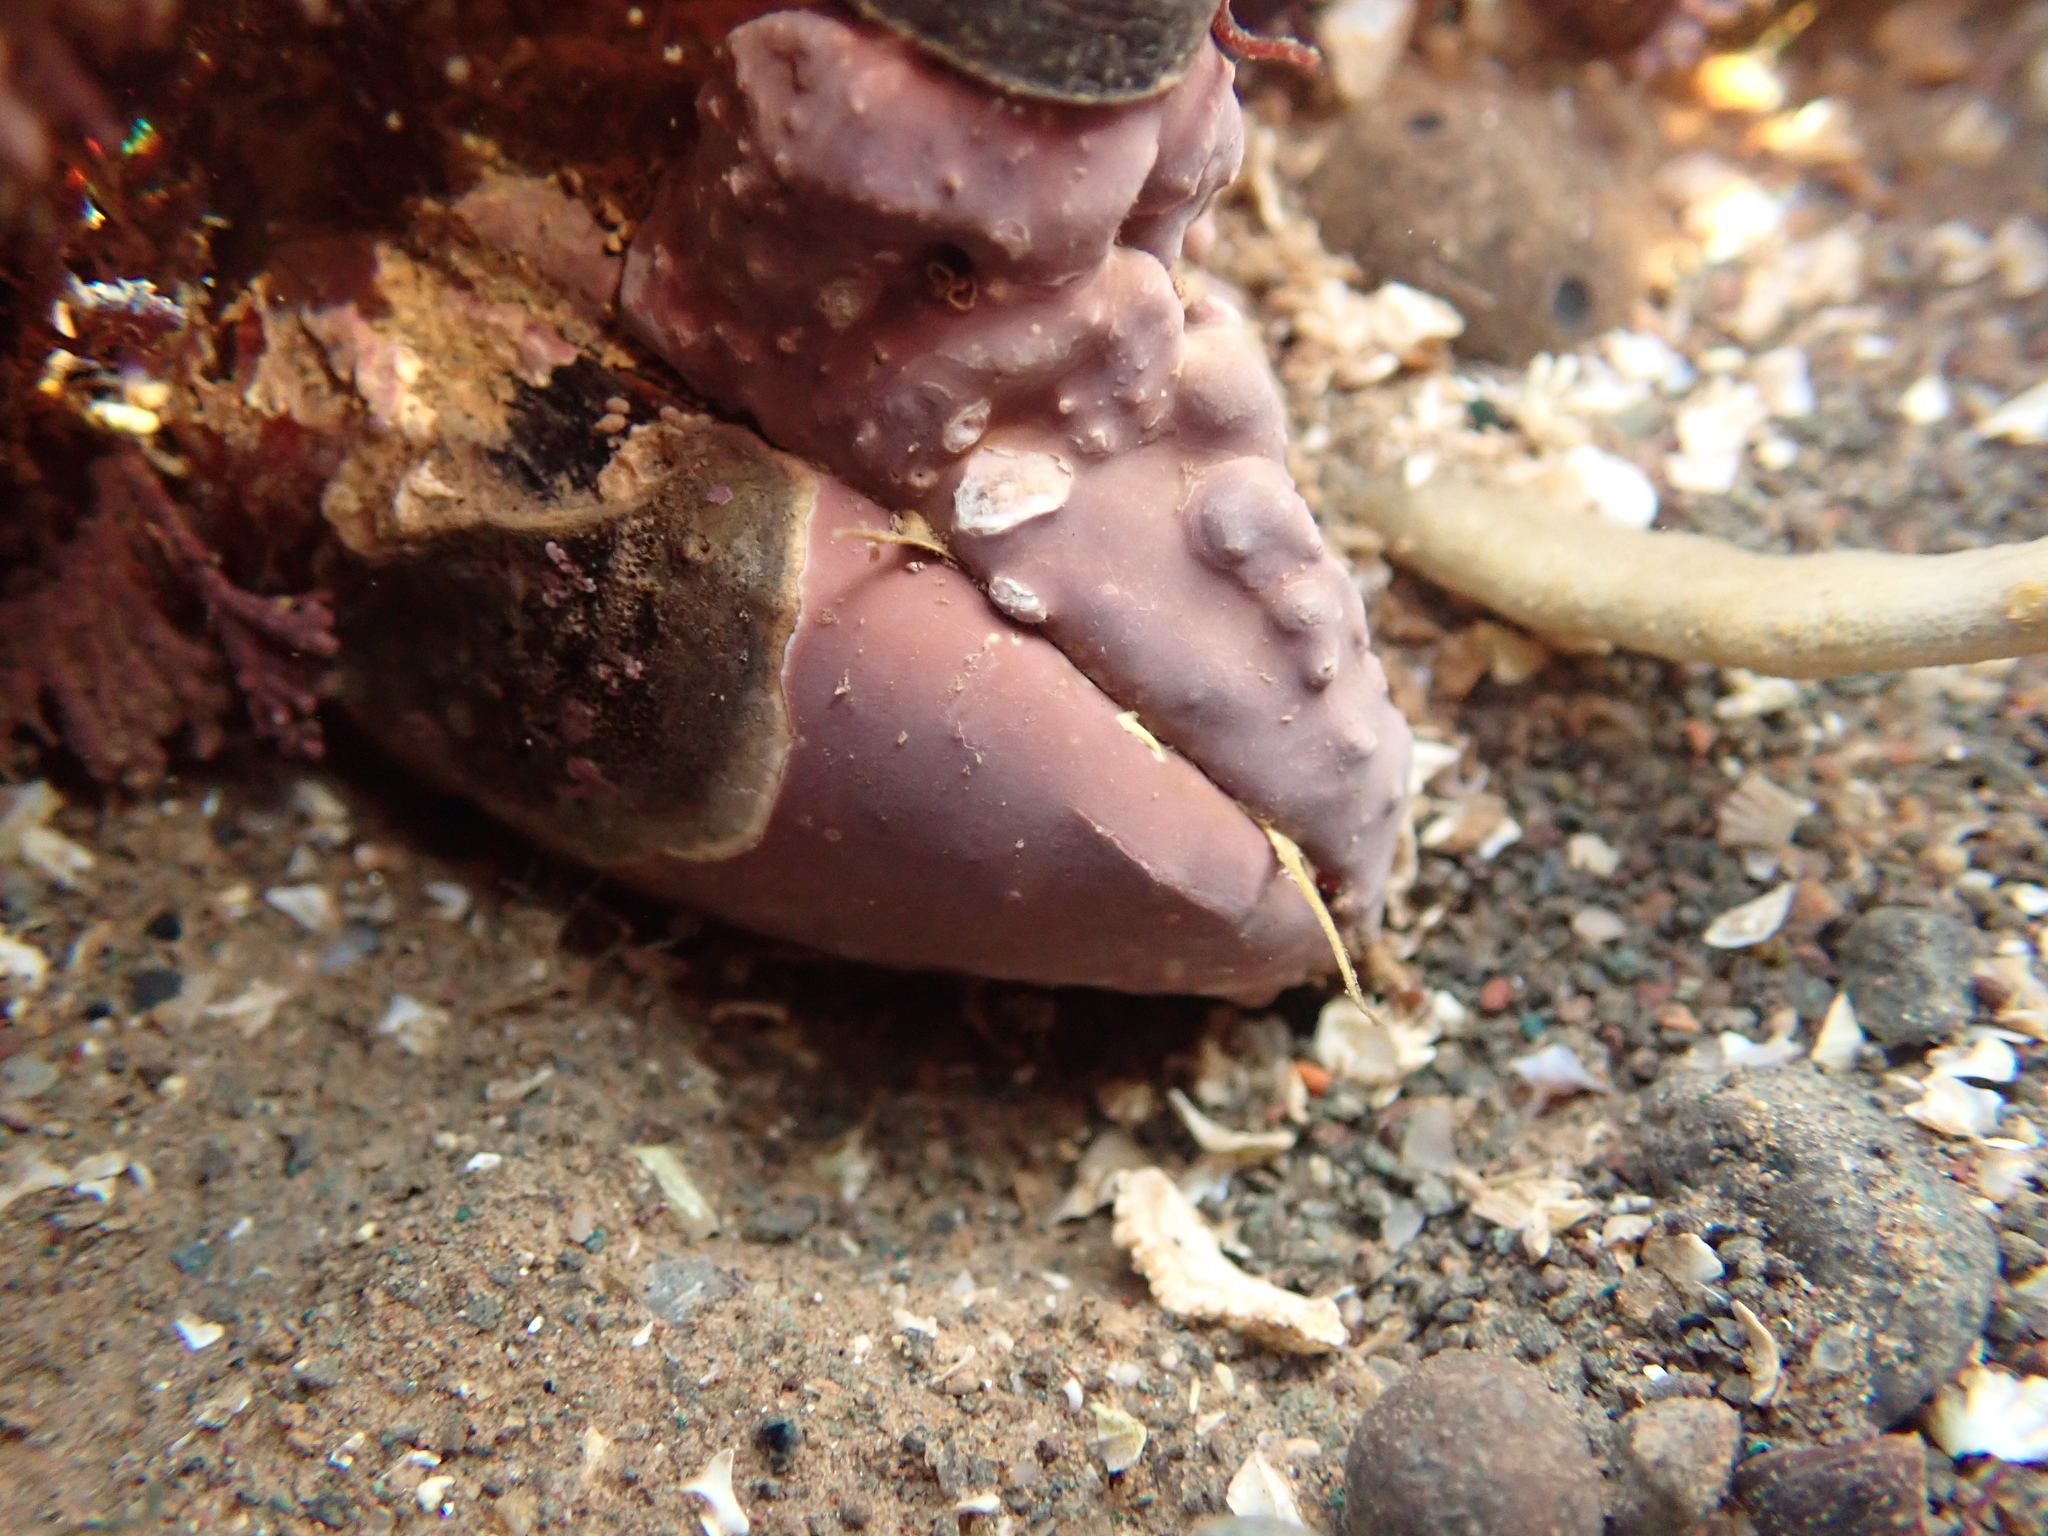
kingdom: Animalia
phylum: Mollusca
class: Bivalvia
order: Mytilida
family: Mytilidae
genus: Modiolus
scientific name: Modiolus modiolus
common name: Horse-mussel
